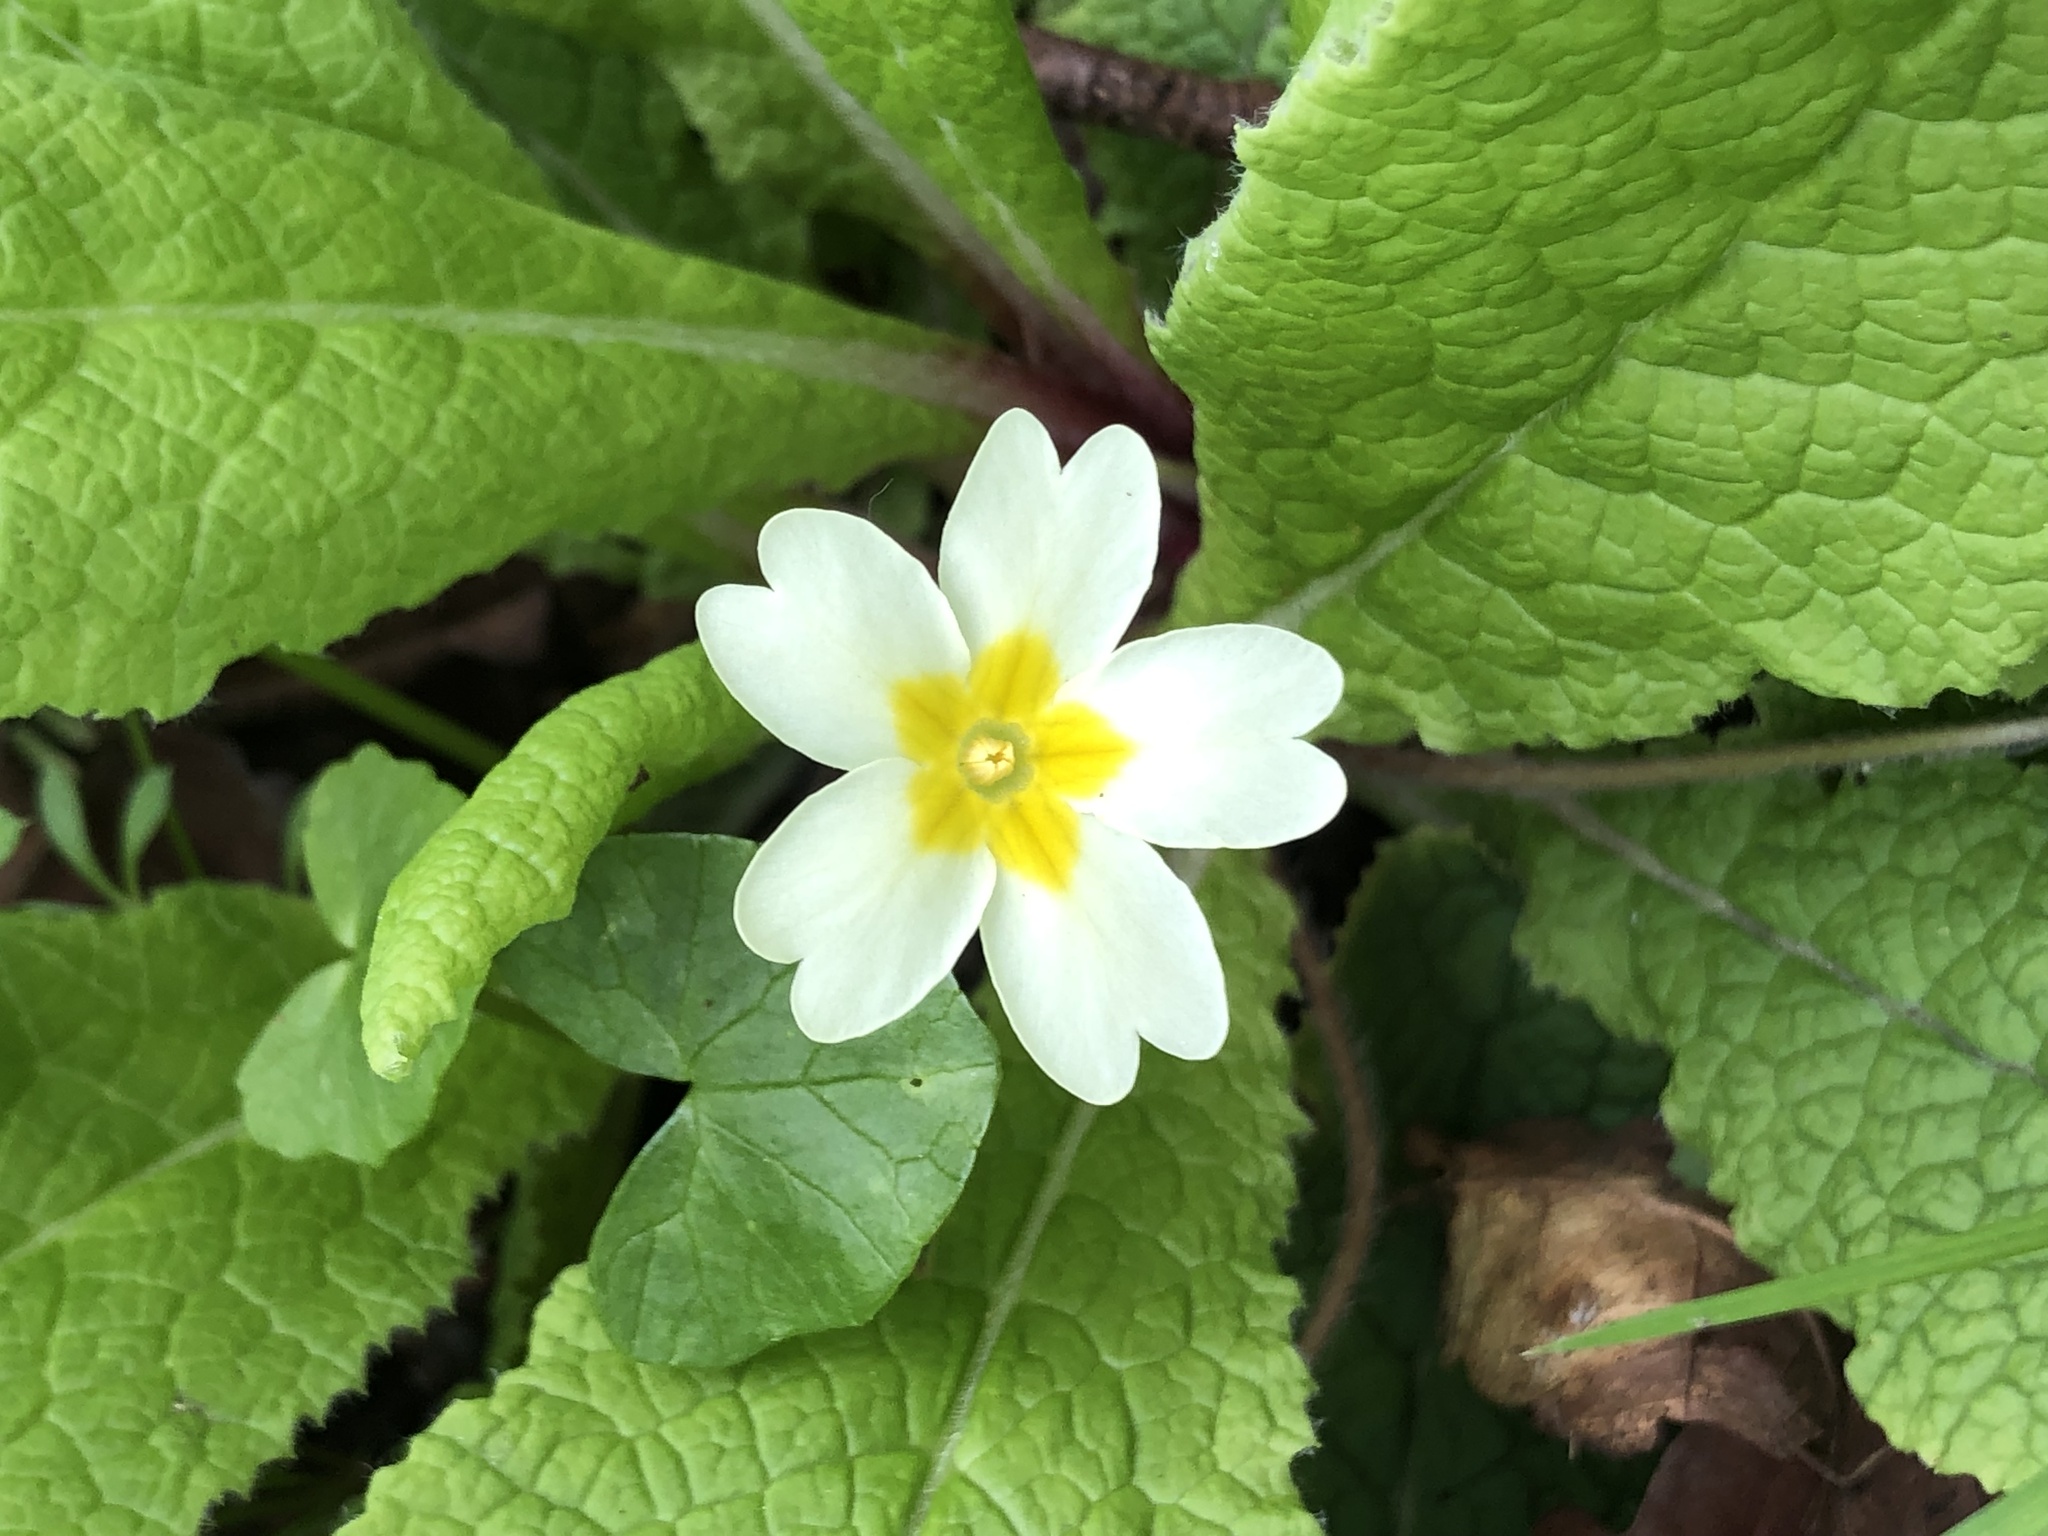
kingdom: Plantae
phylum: Tracheophyta
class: Magnoliopsida
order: Ericales
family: Primulaceae
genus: Primula
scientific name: Primula vulgaris
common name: Primrose
